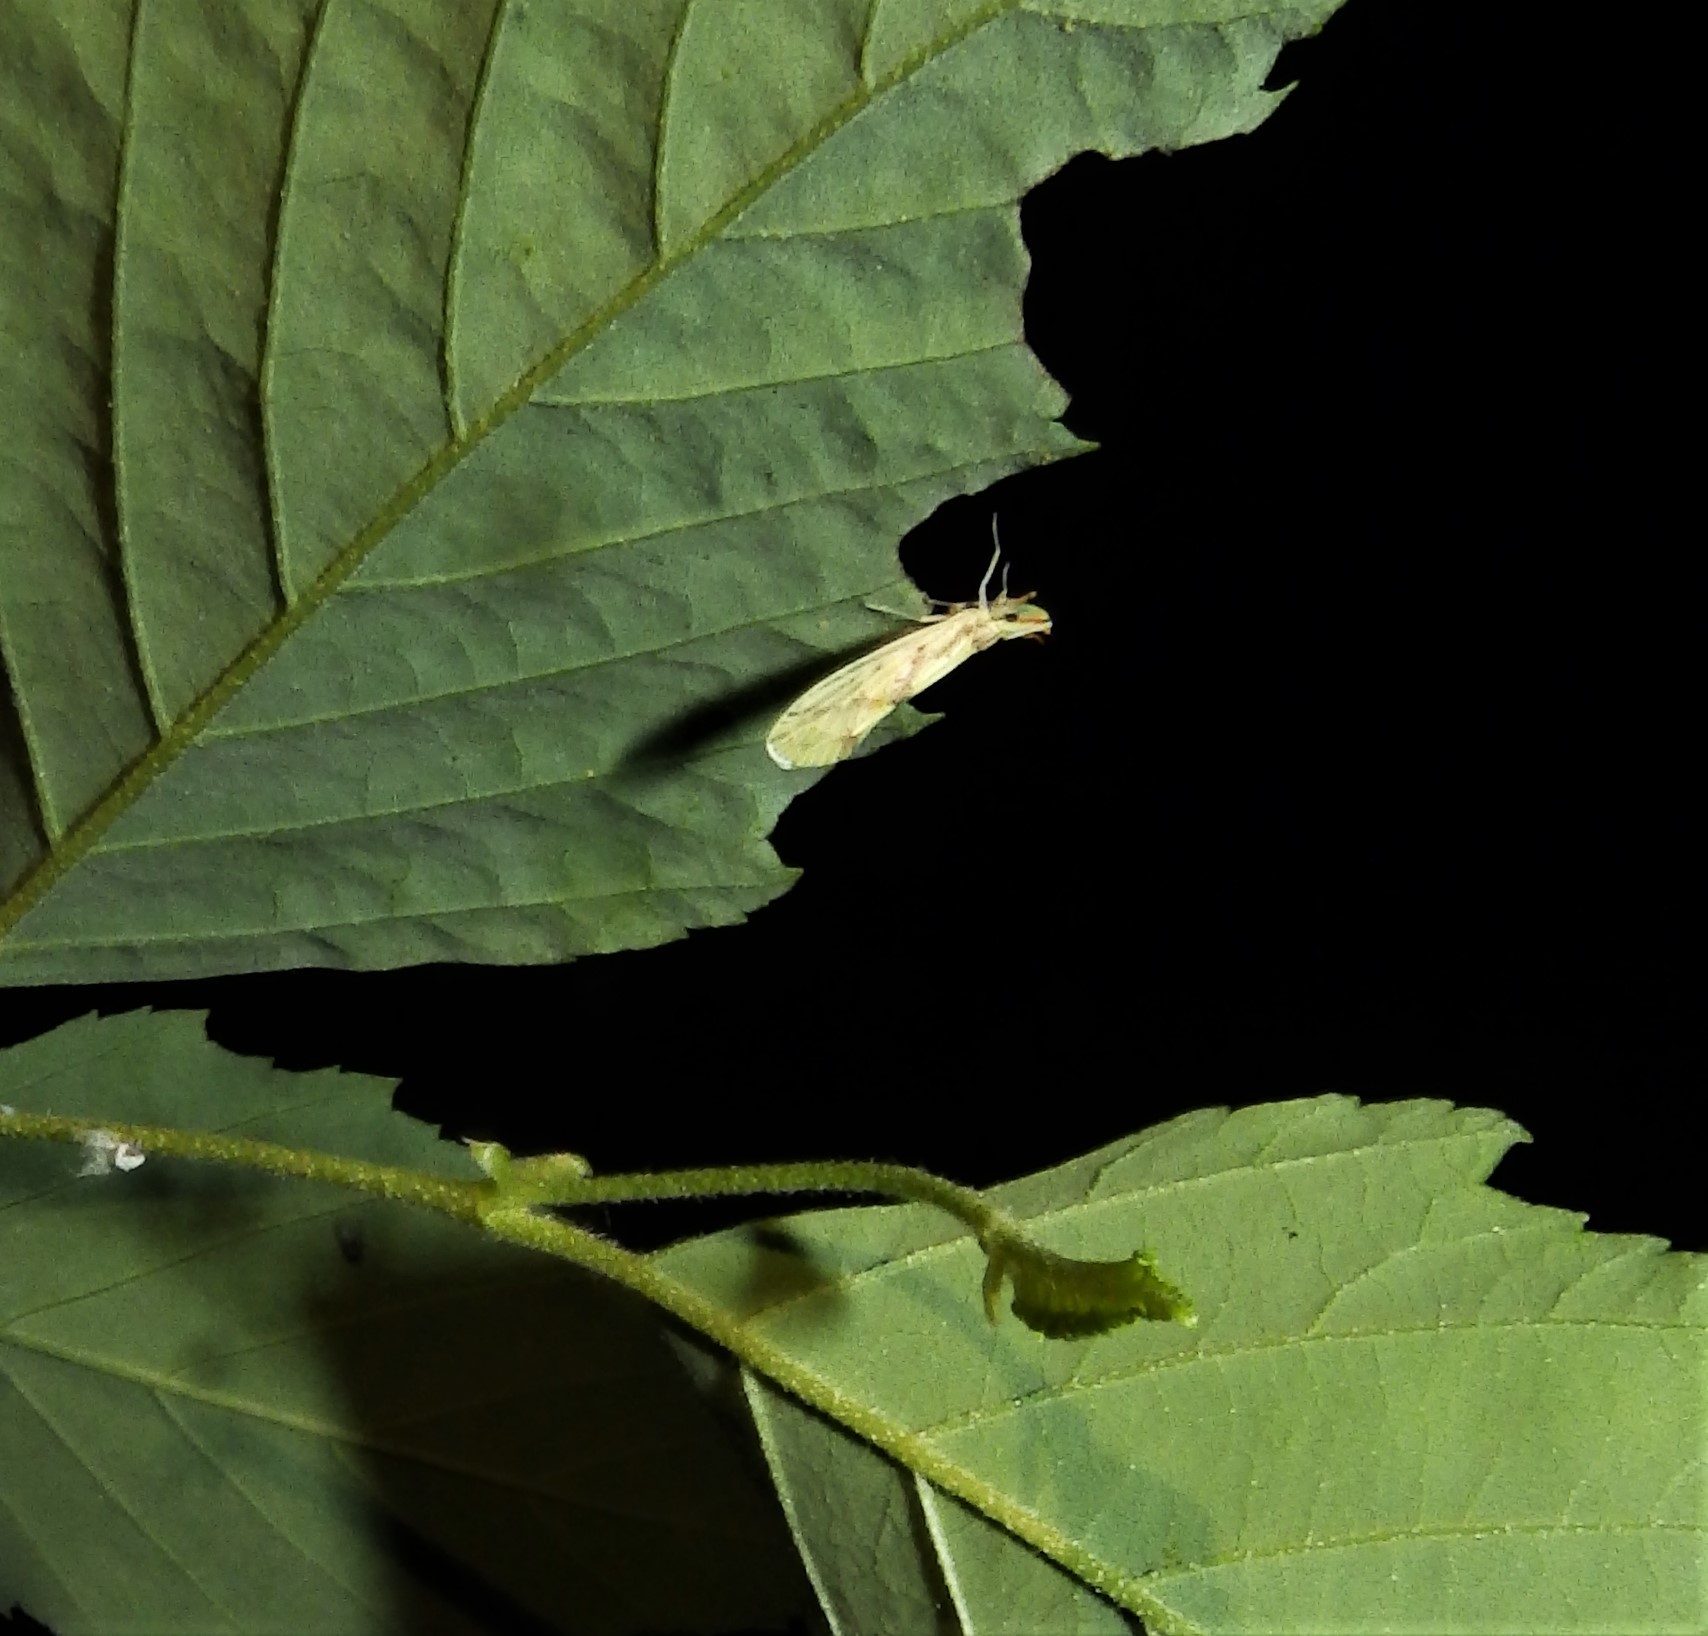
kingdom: Animalia
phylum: Arthropoda
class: Insecta
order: Hemiptera
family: Derbidae
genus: Otiocerus
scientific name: Otiocerus wolfii
